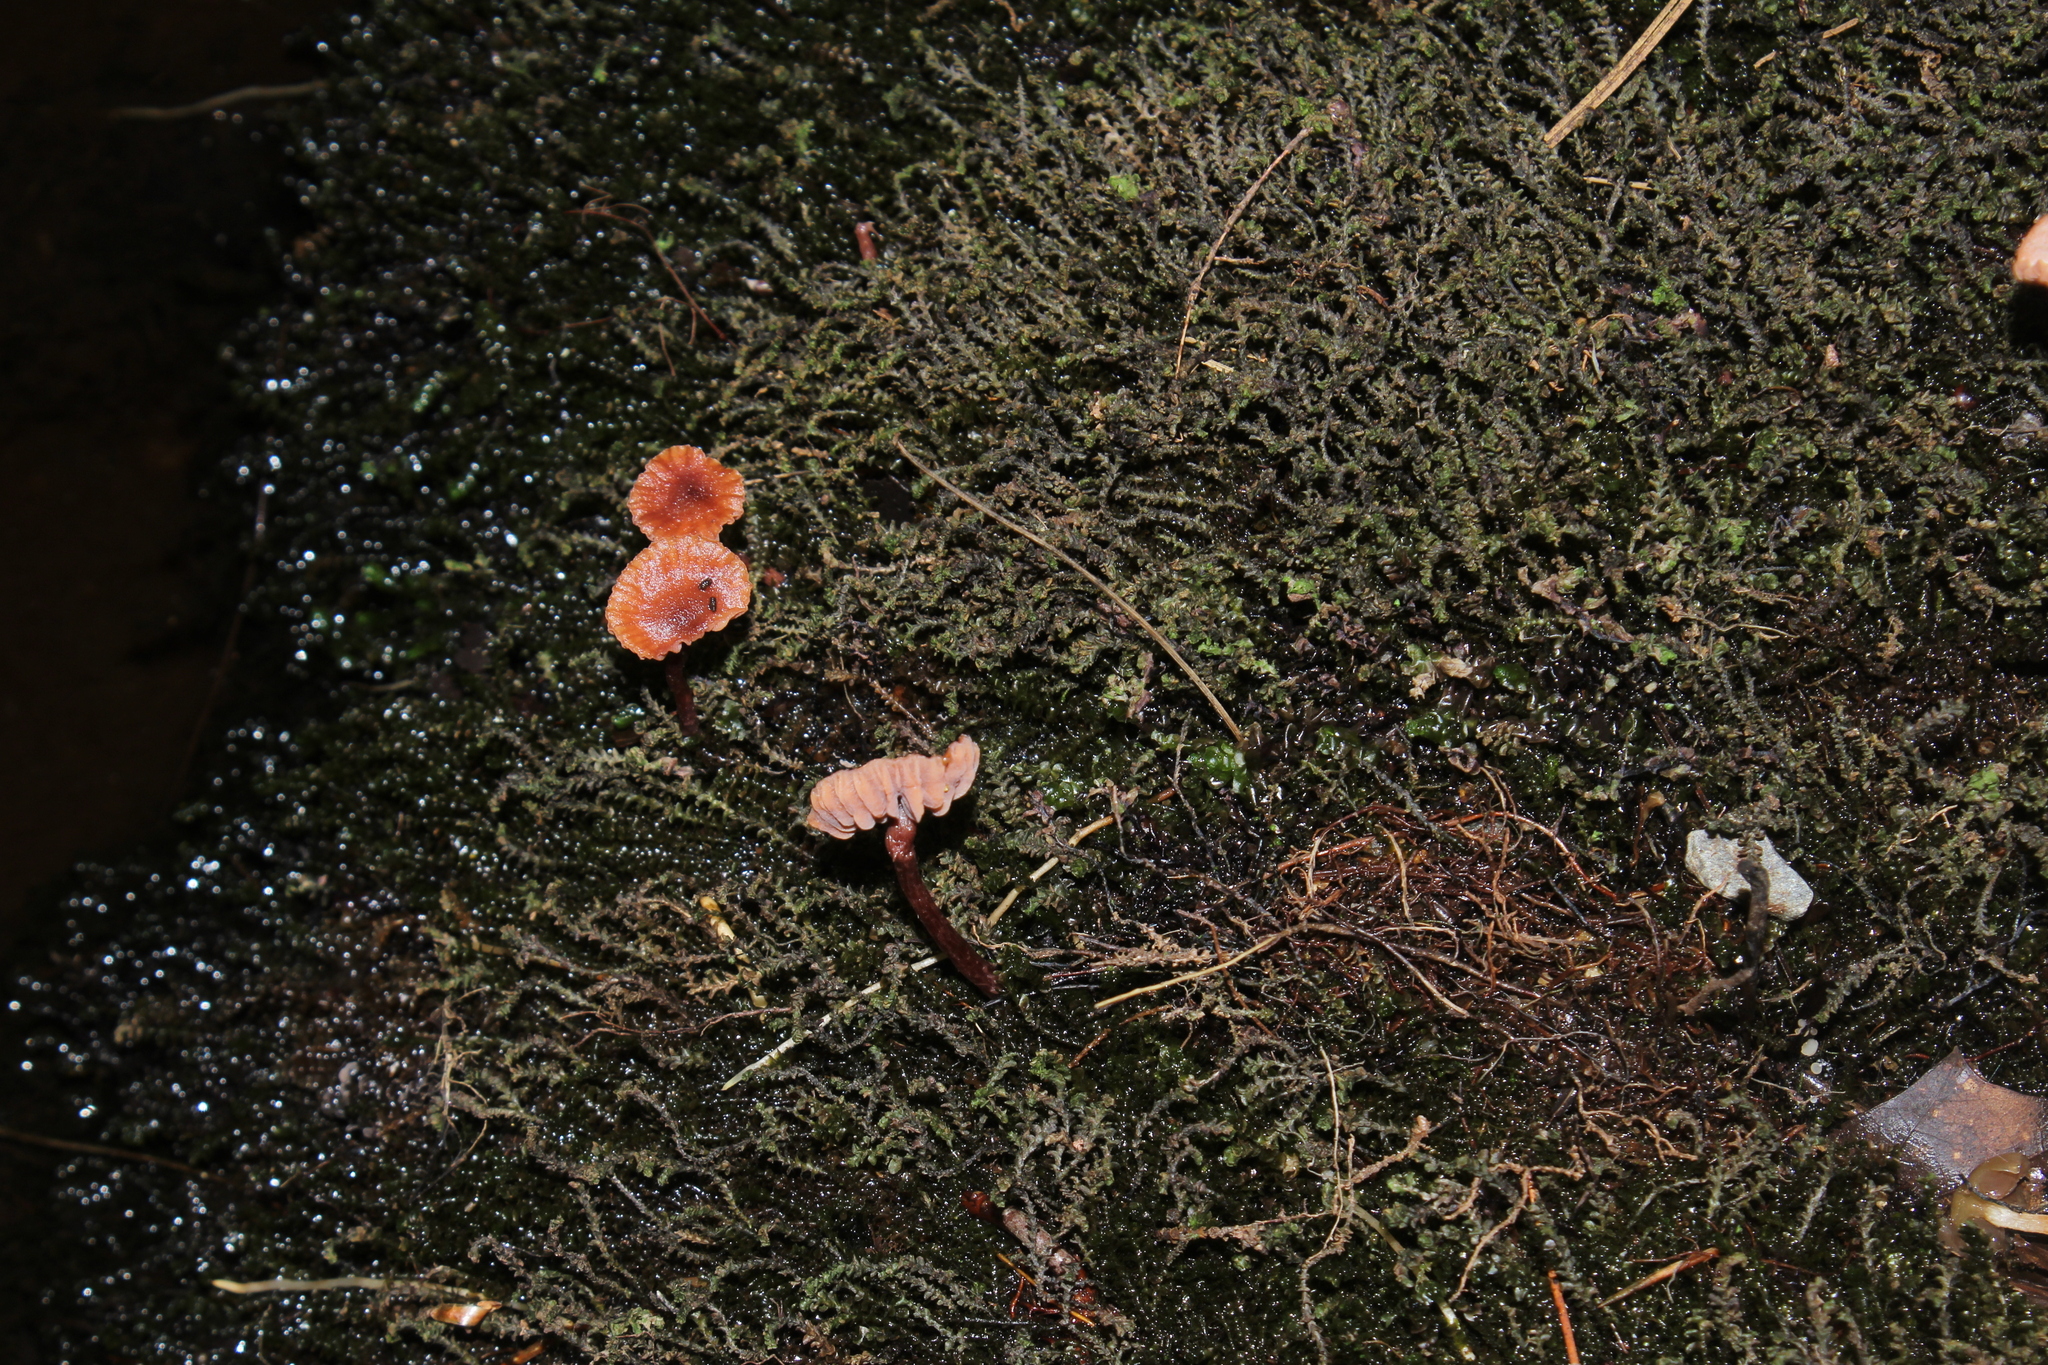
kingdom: Fungi
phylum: Basidiomycota
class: Agaricomycetes
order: Agaricales
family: Hydnangiaceae
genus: Laccaria
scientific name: Laccaria striatula
